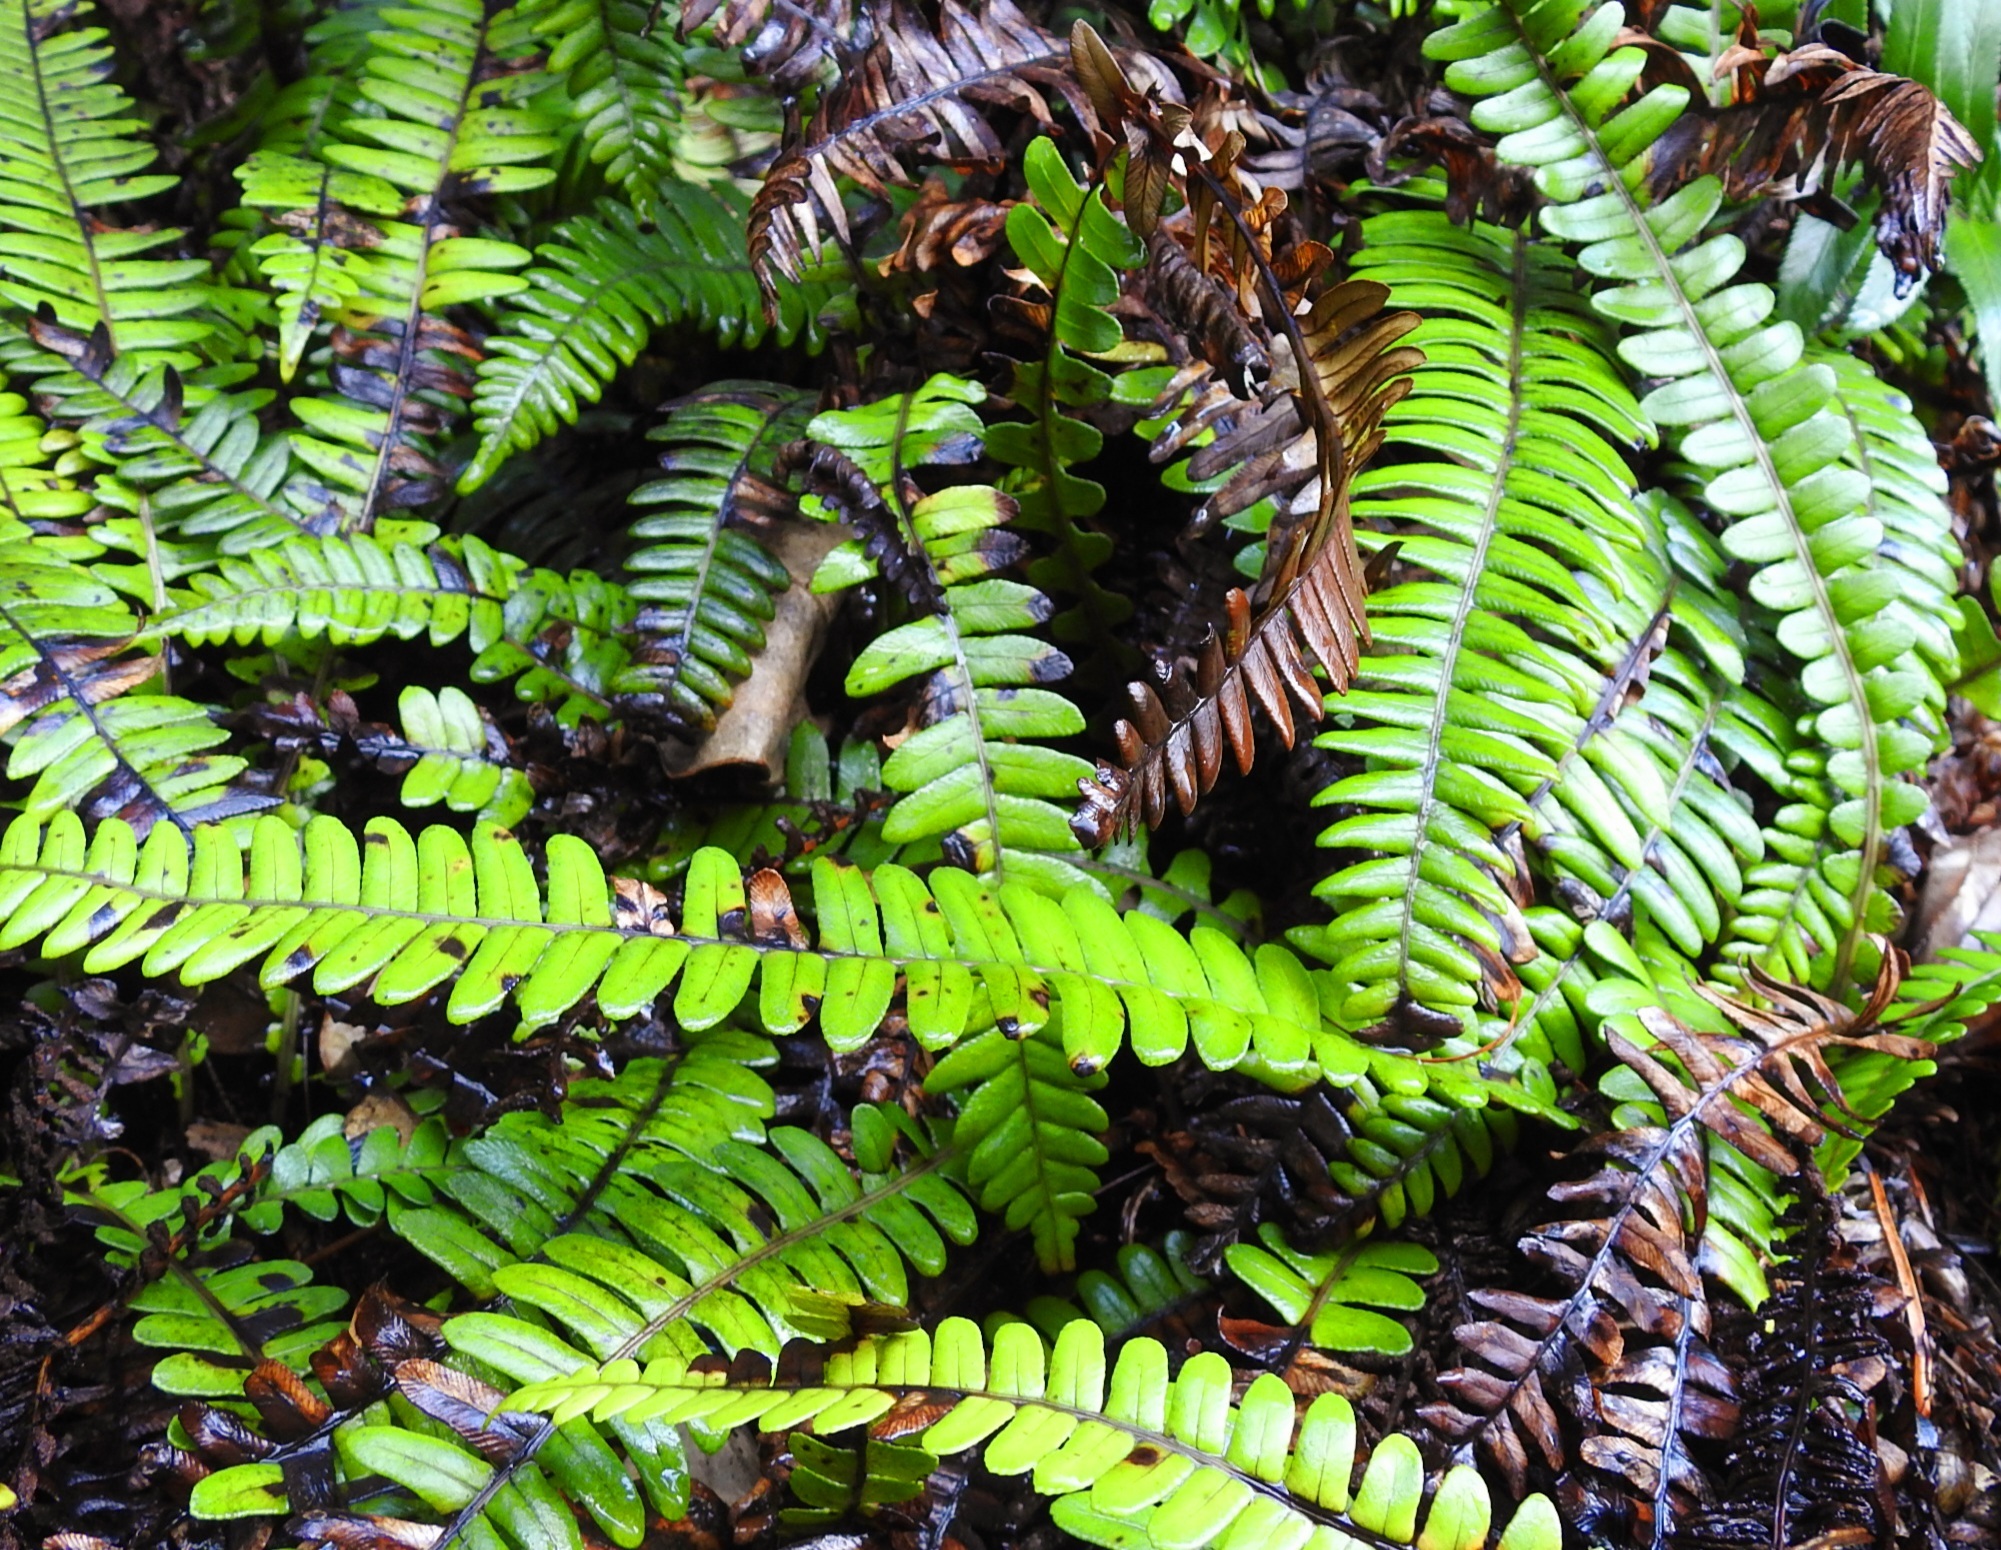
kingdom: Plantae
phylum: Tracheophyta
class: Polypodiopsida
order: Polypodiales
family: Blechnaceae
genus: Austroblechnum
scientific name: Austroblechnum durum
